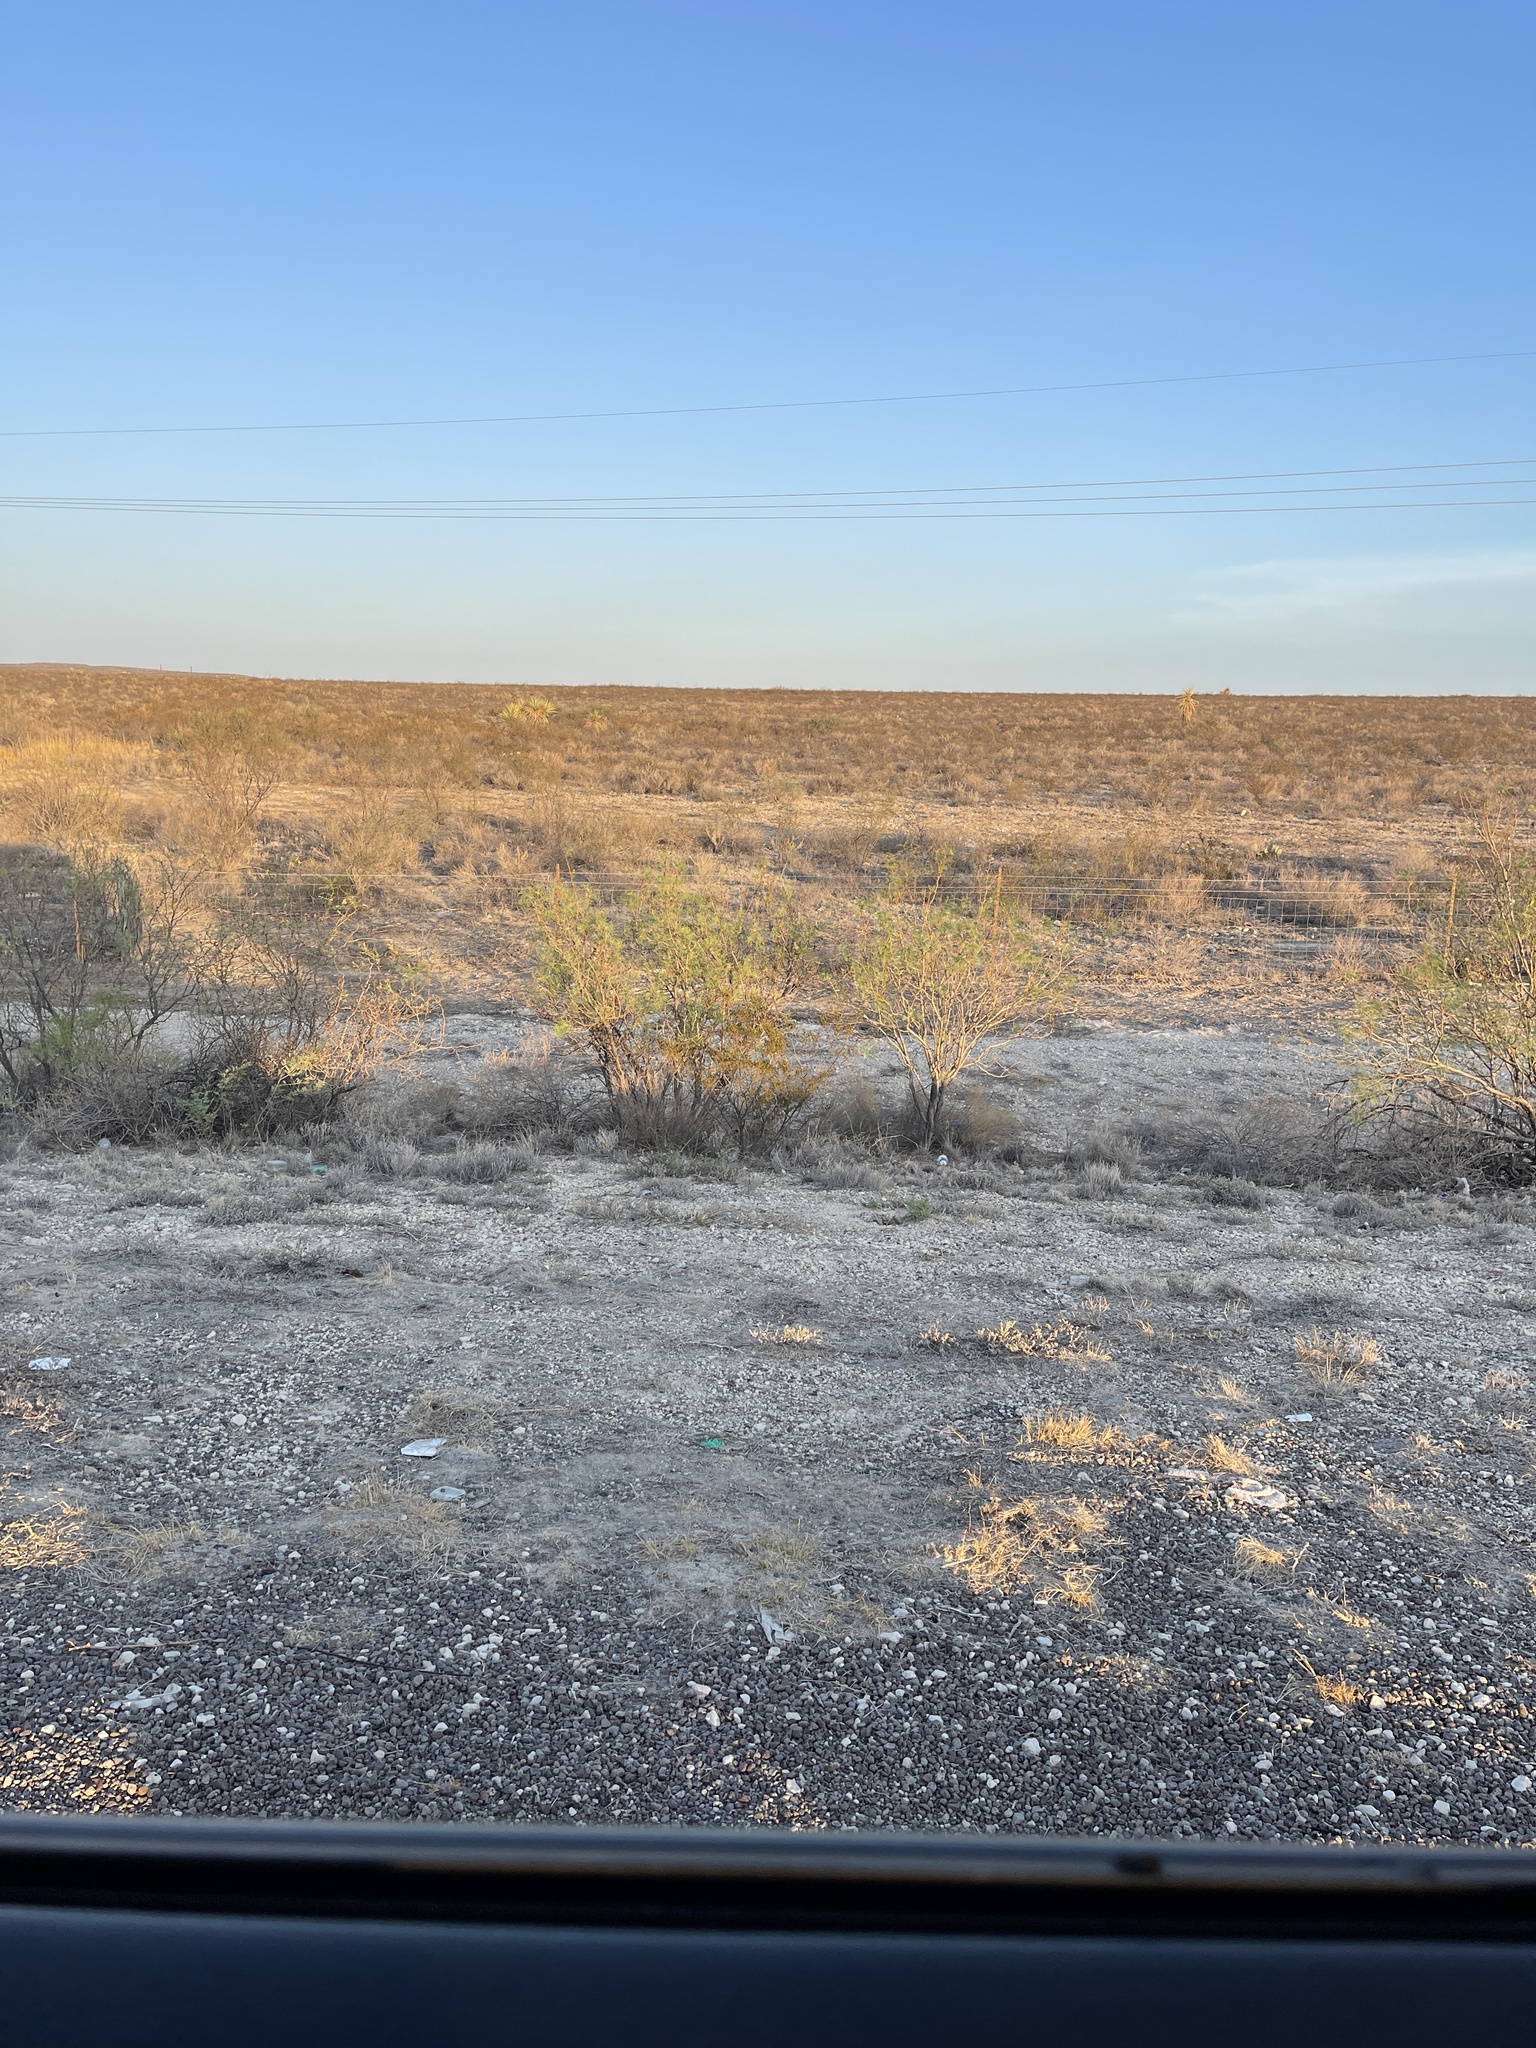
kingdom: Plantae
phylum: Tracheophyta
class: Magnoliopsida
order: Zygophyllales
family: Zygophyllaceae
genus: Larrea
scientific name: Larrea tridentata
